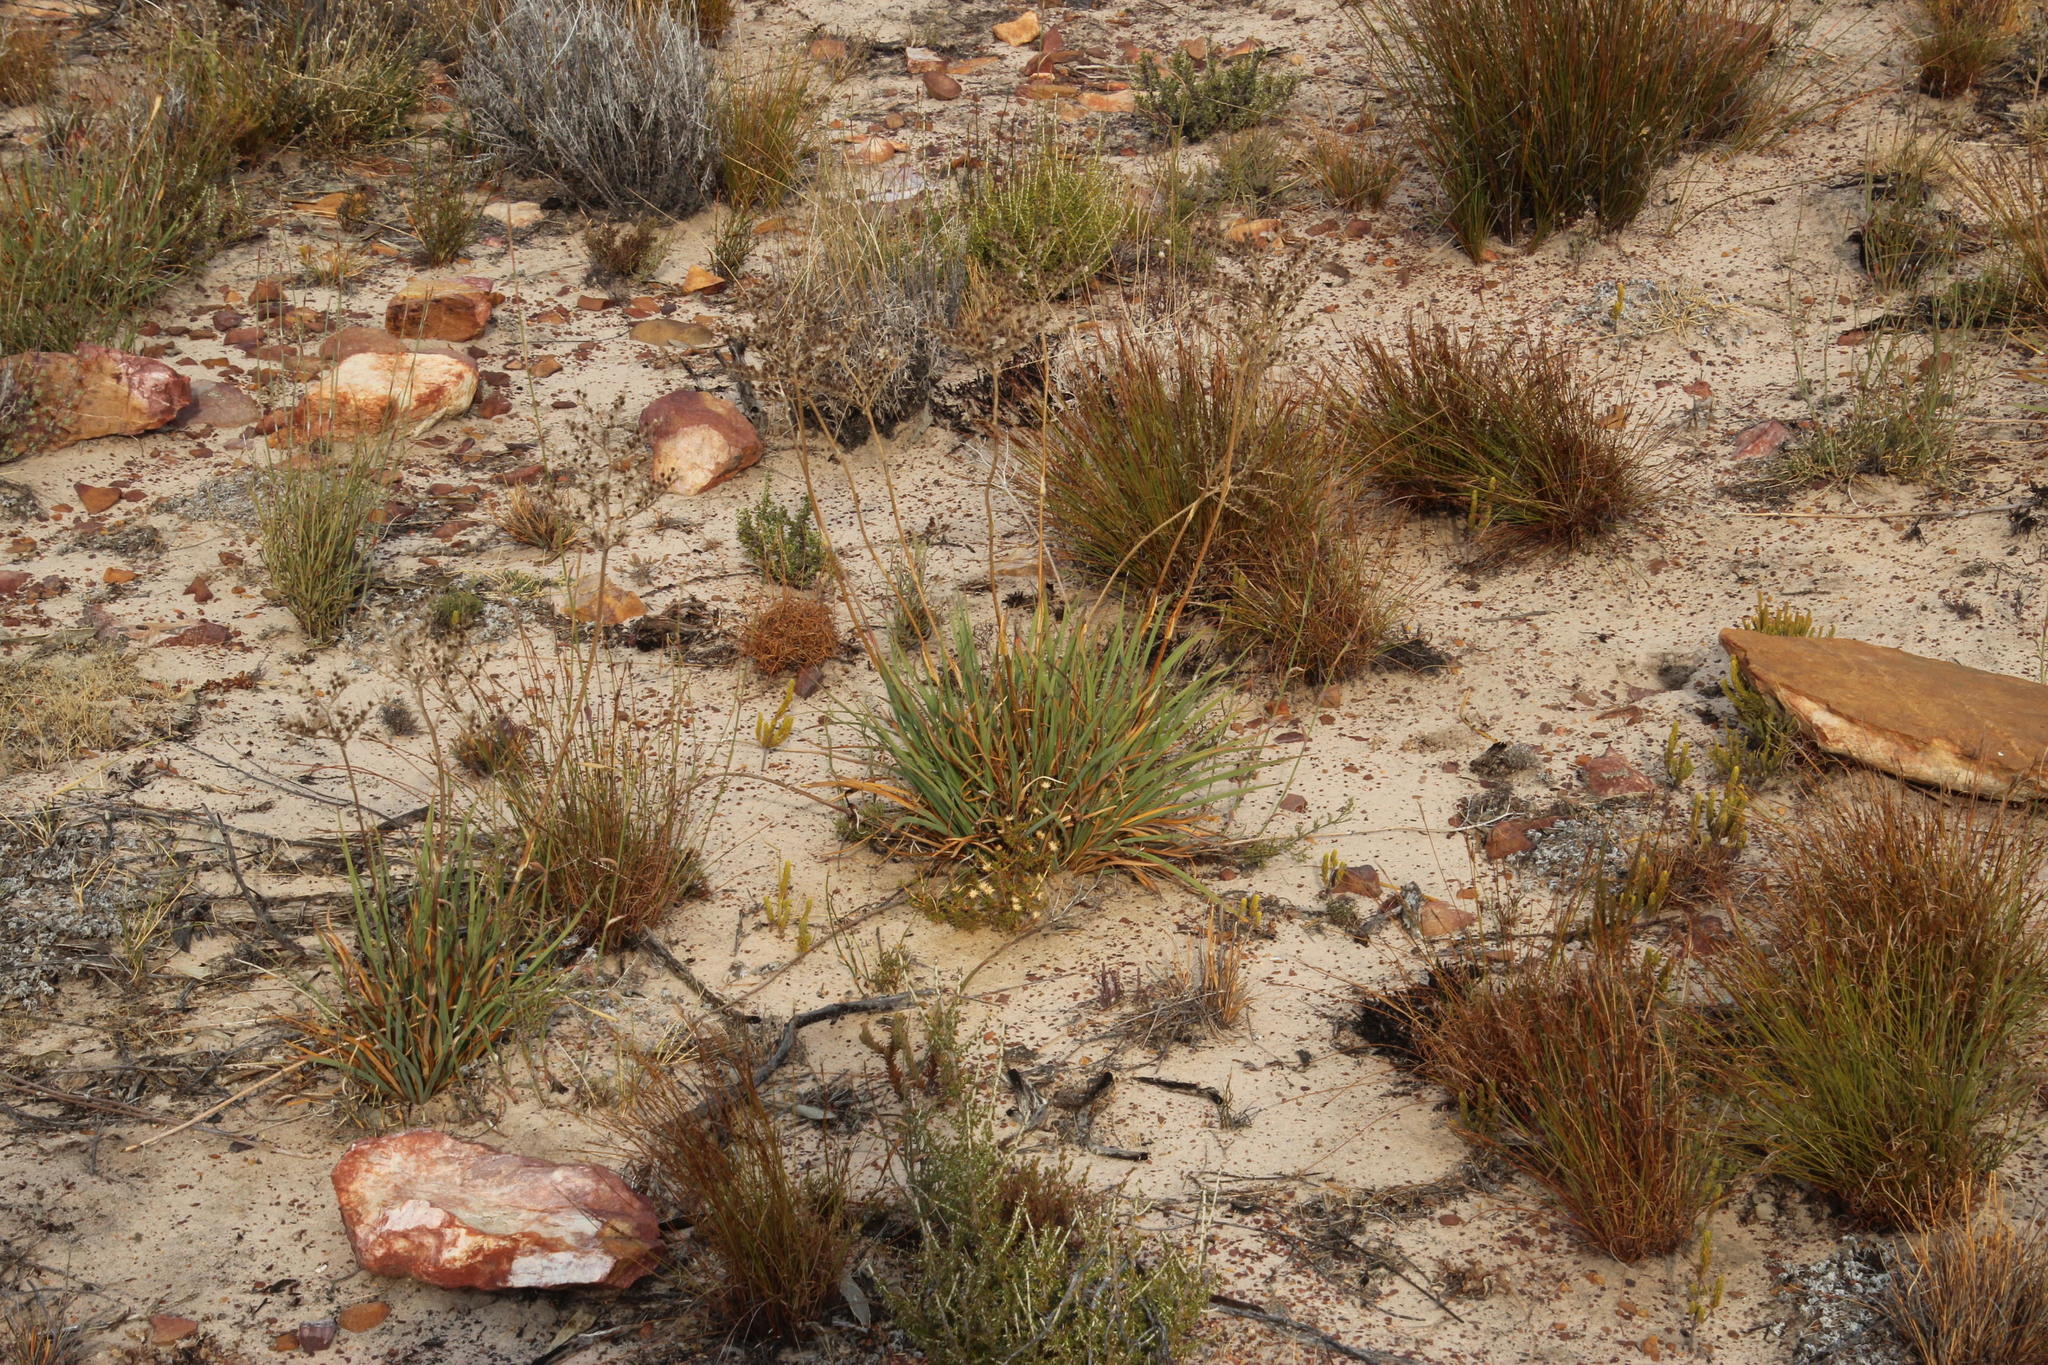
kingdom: Plantae
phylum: Tracheophyta
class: Liliopsida
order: Commelinales
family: Haemodoraceae
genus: Dilatris
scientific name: Dilatris ixioides
